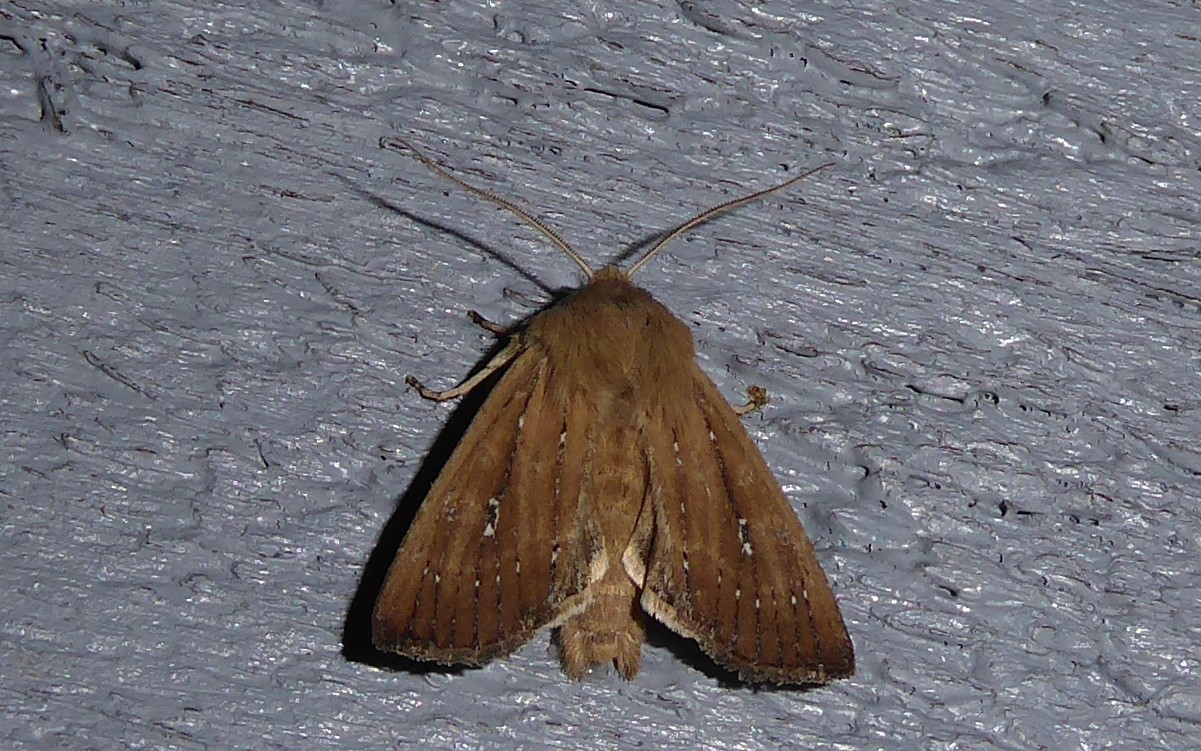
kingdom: Animalia
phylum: Arthropoda
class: Insecta
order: Lepidoptera
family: Noctuidae
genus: Ichneutica
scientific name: Ichneutica
